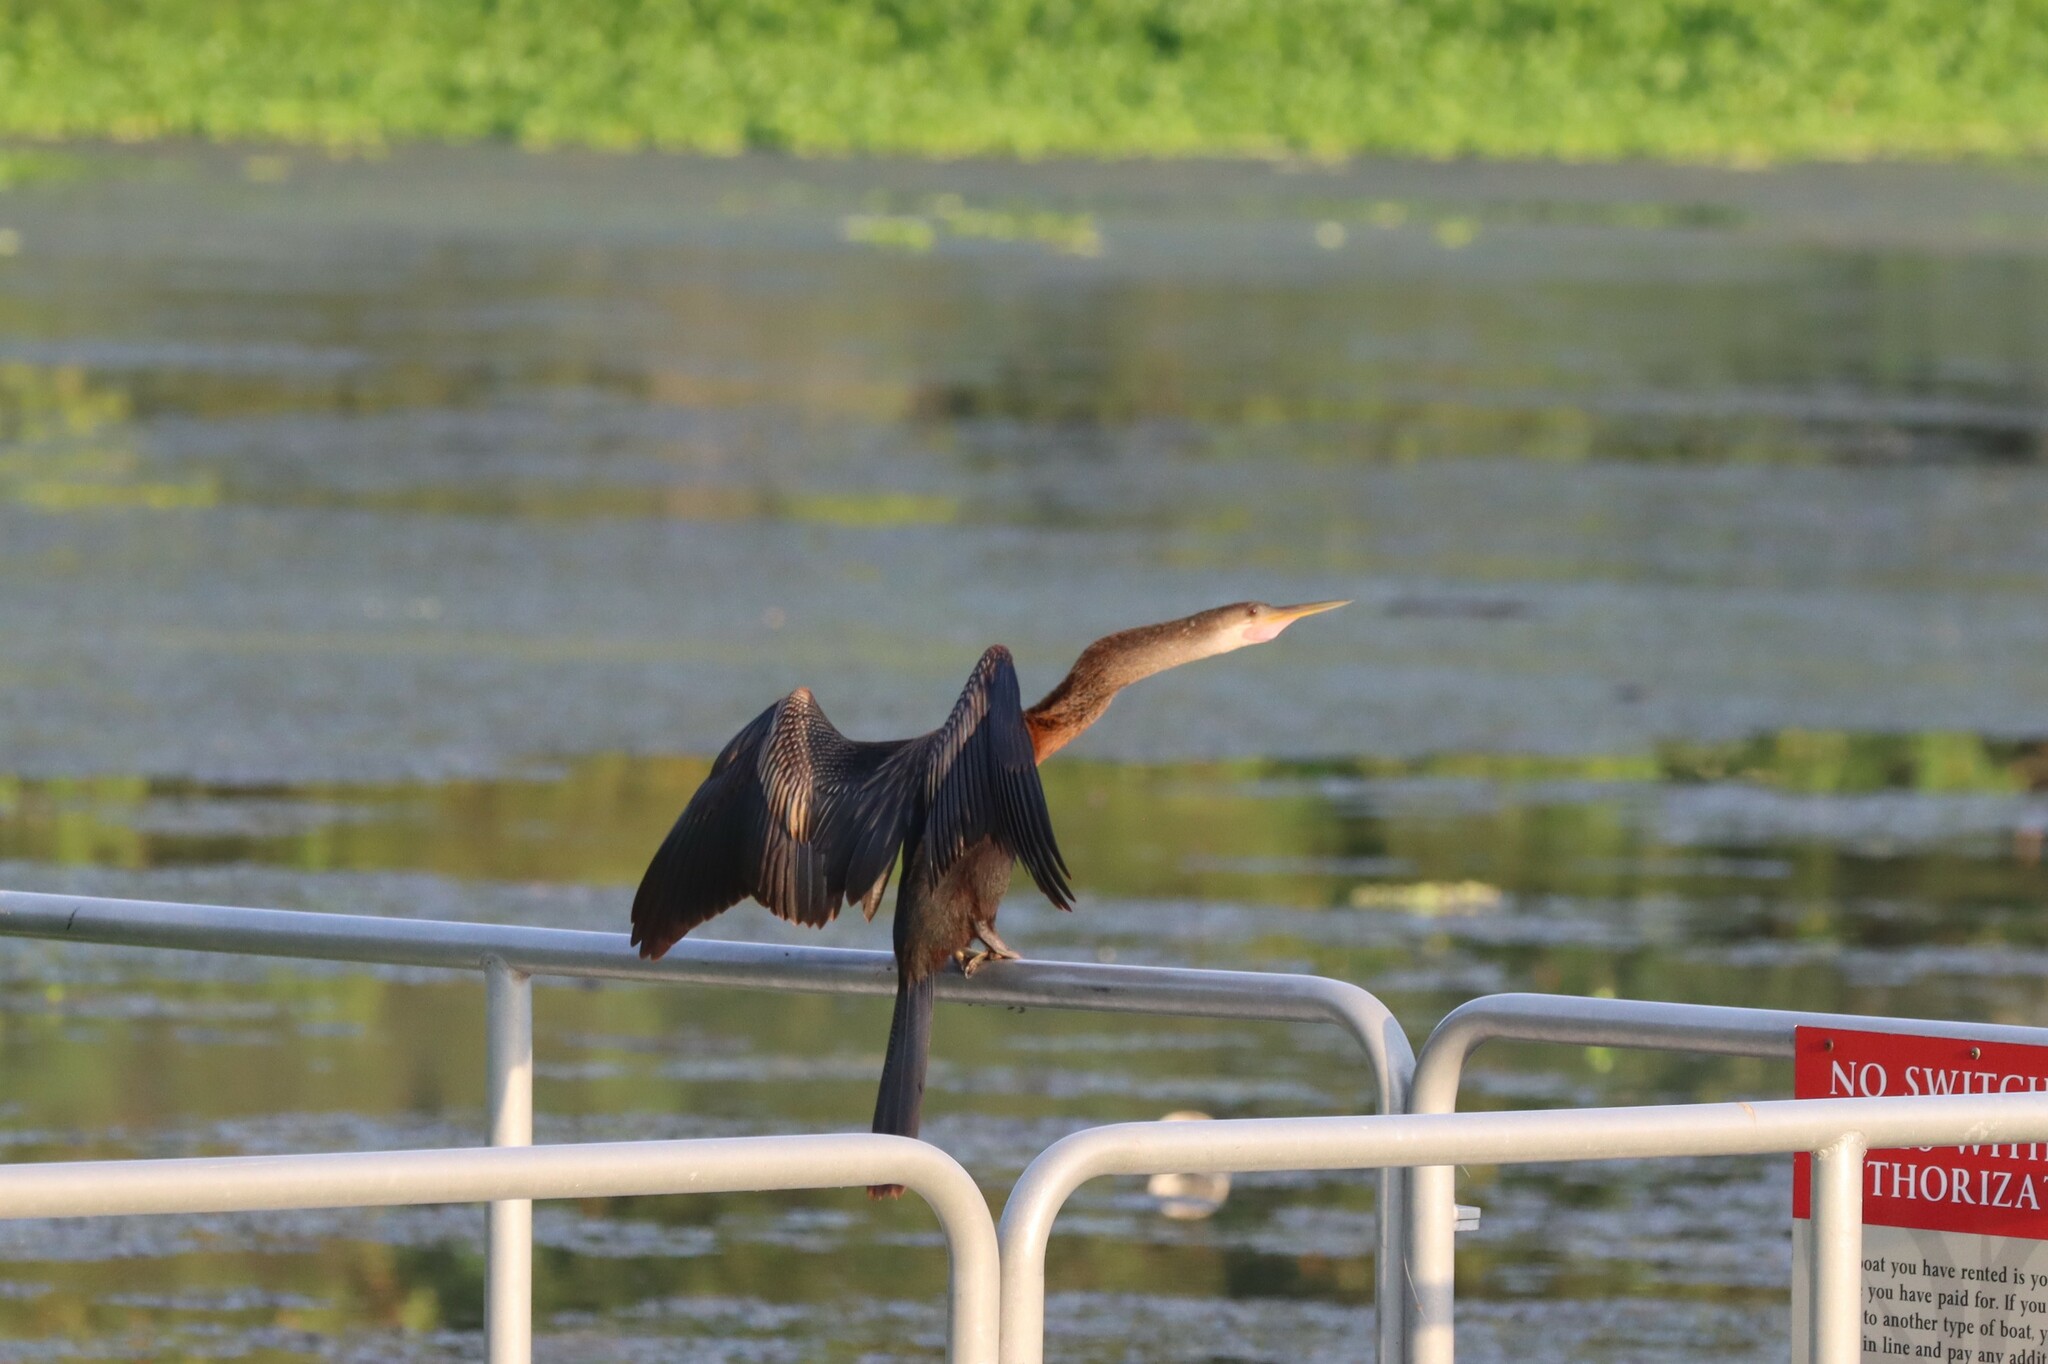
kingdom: Animalia
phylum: Chordata
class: Aves
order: Suliformes
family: Anhingidae
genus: Anhinga
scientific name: Anhinga anhinga
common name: Anhinga
